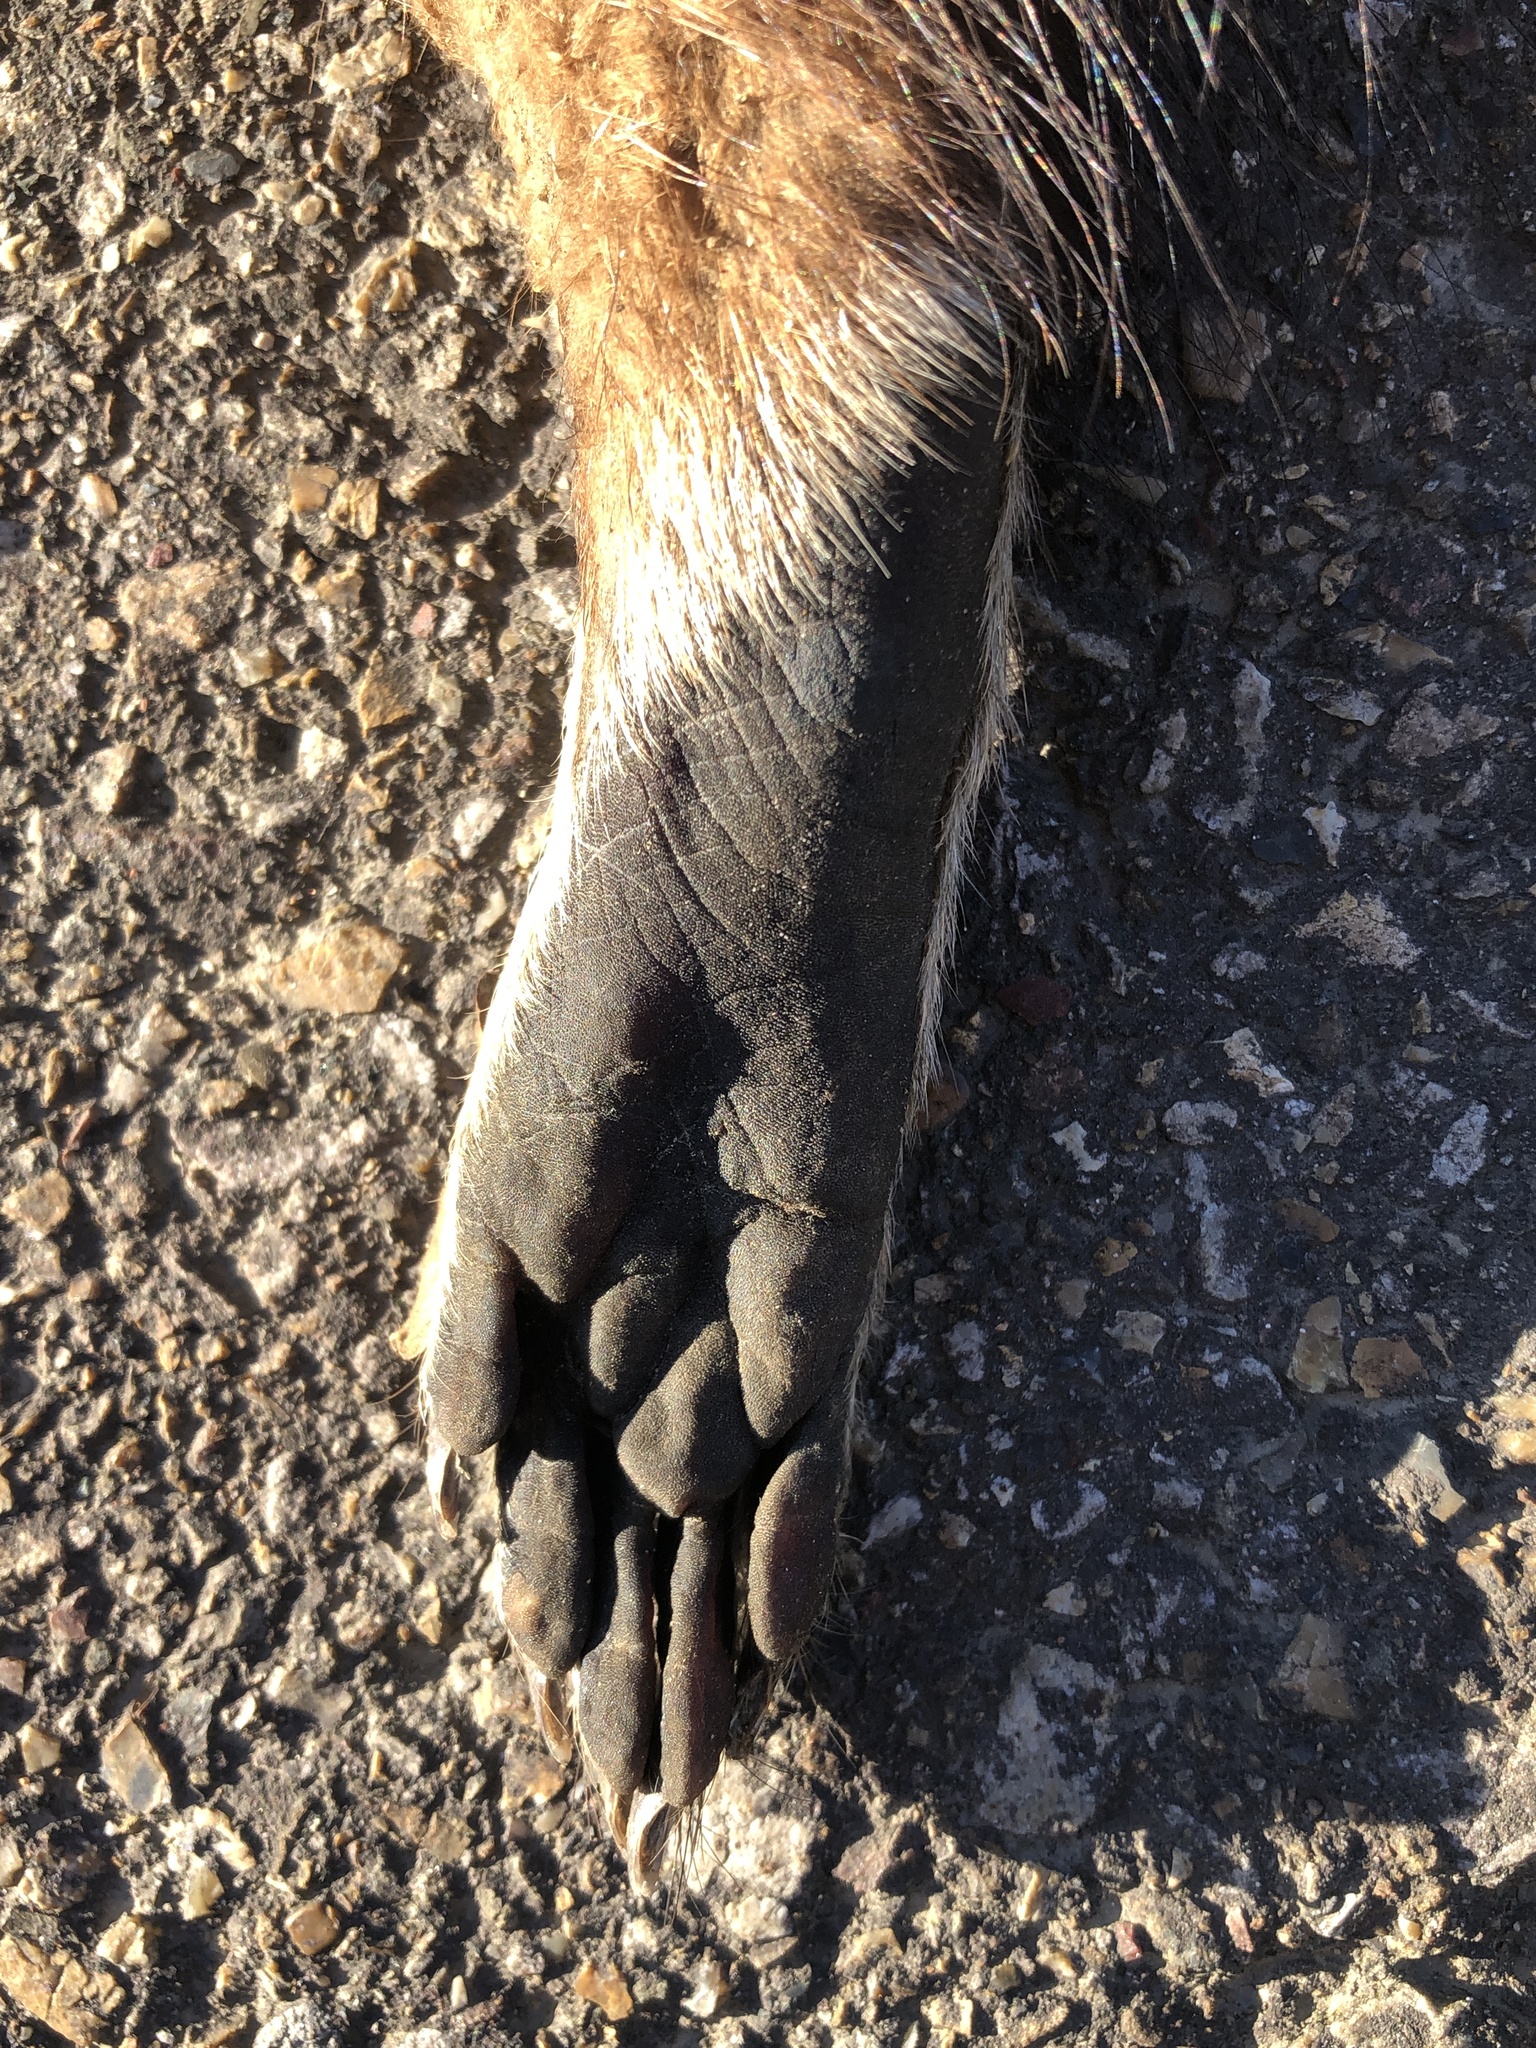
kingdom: Animalia
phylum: Chordata
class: Mammalia
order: Carnivora
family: Procyonidae
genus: Procyon
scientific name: Procyon lotor
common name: Raccoon
